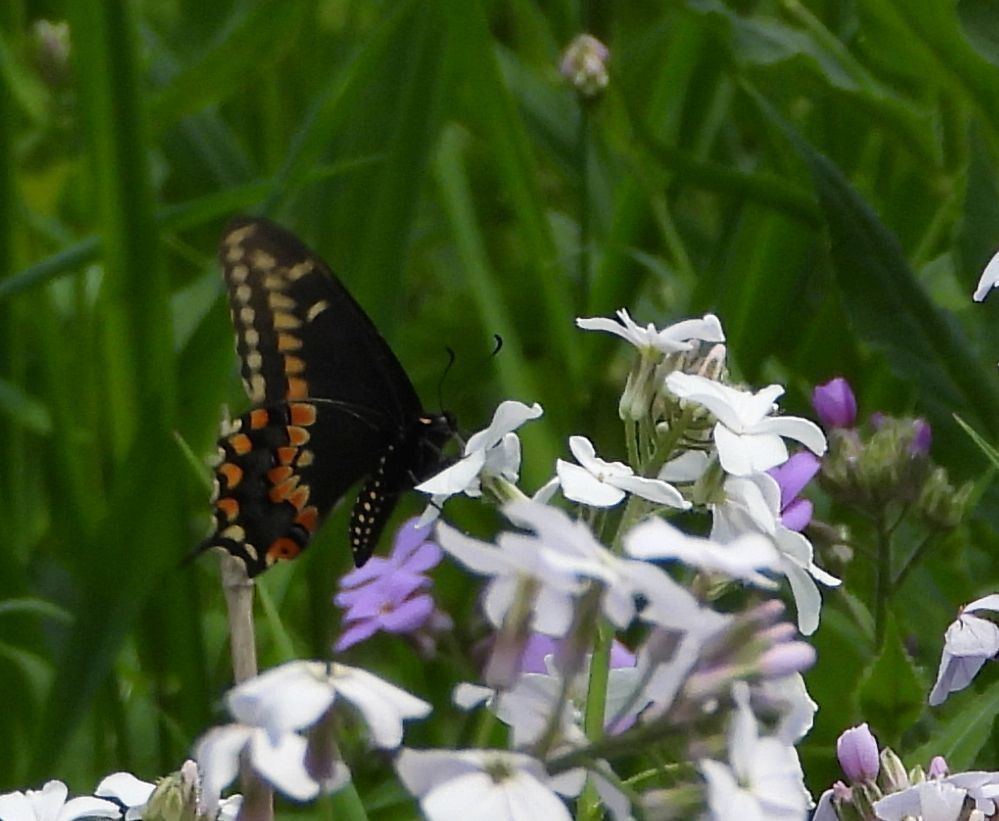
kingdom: Animalia
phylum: Arthropoda
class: Insecta
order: Lepidoptera
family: Papilionidae
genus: Papilio
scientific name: Papilio polyxenes
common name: Black swallowtail
